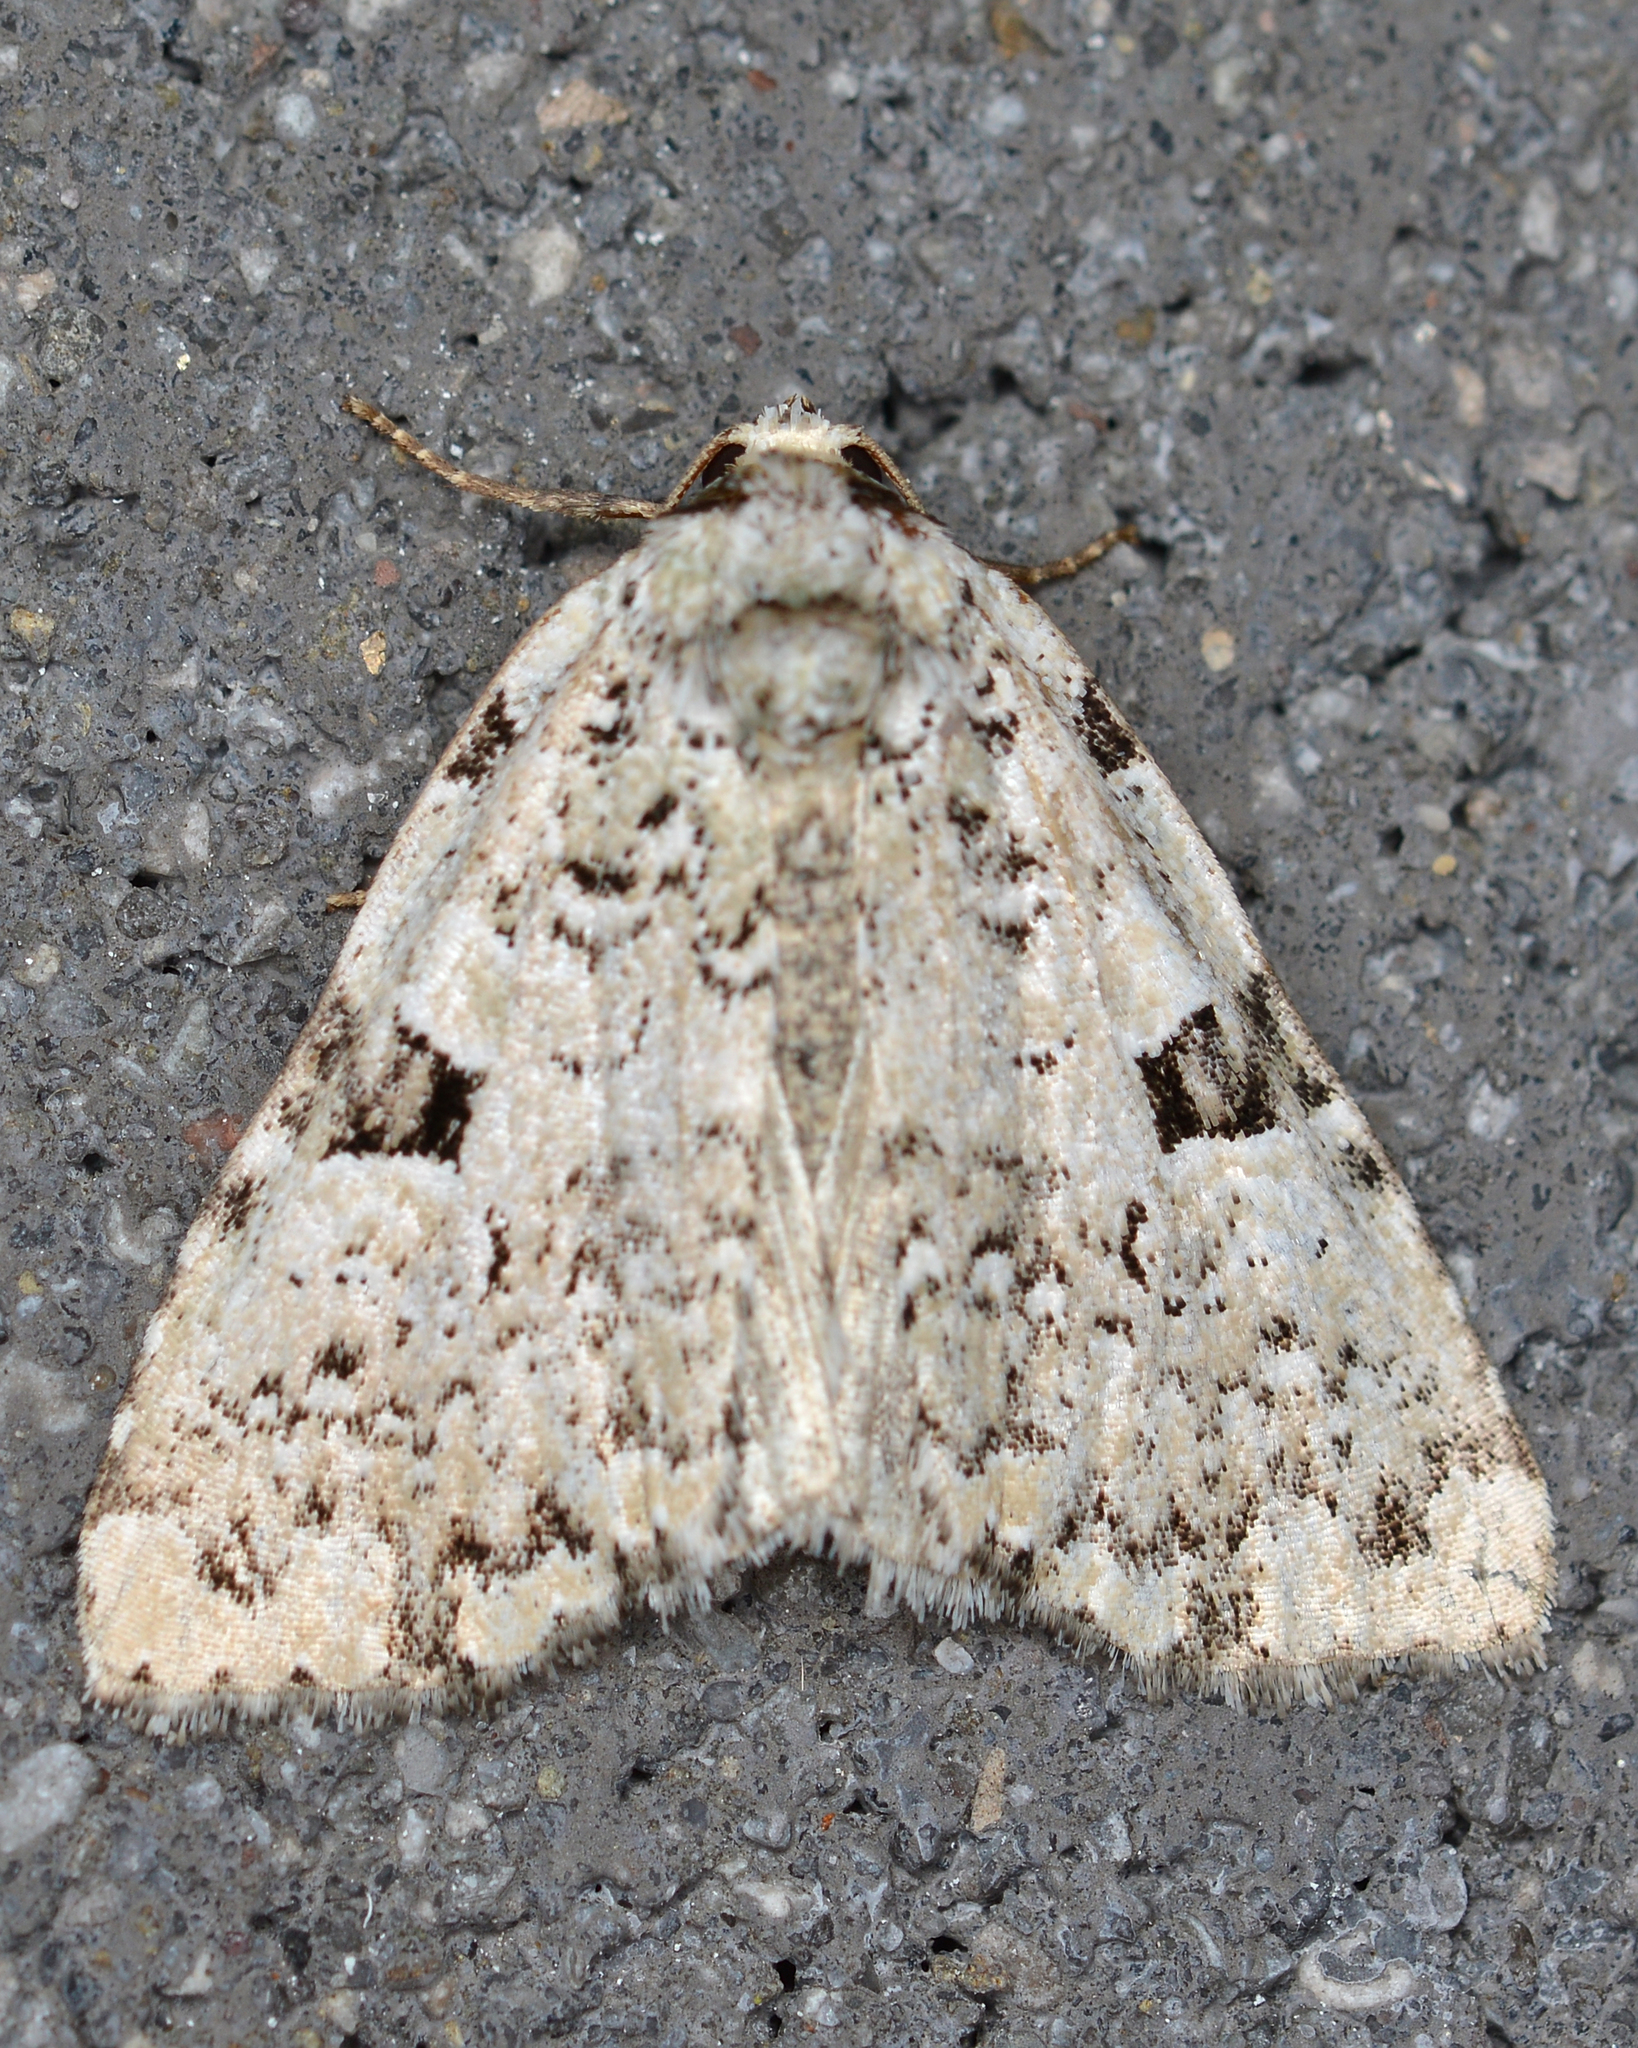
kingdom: Animalia
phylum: Arthropoda
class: Insecta
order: Lepidoptera
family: Noctuidae
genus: Leuconycta
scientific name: Leuconycta diphteroides
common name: Green leuconycta moth
